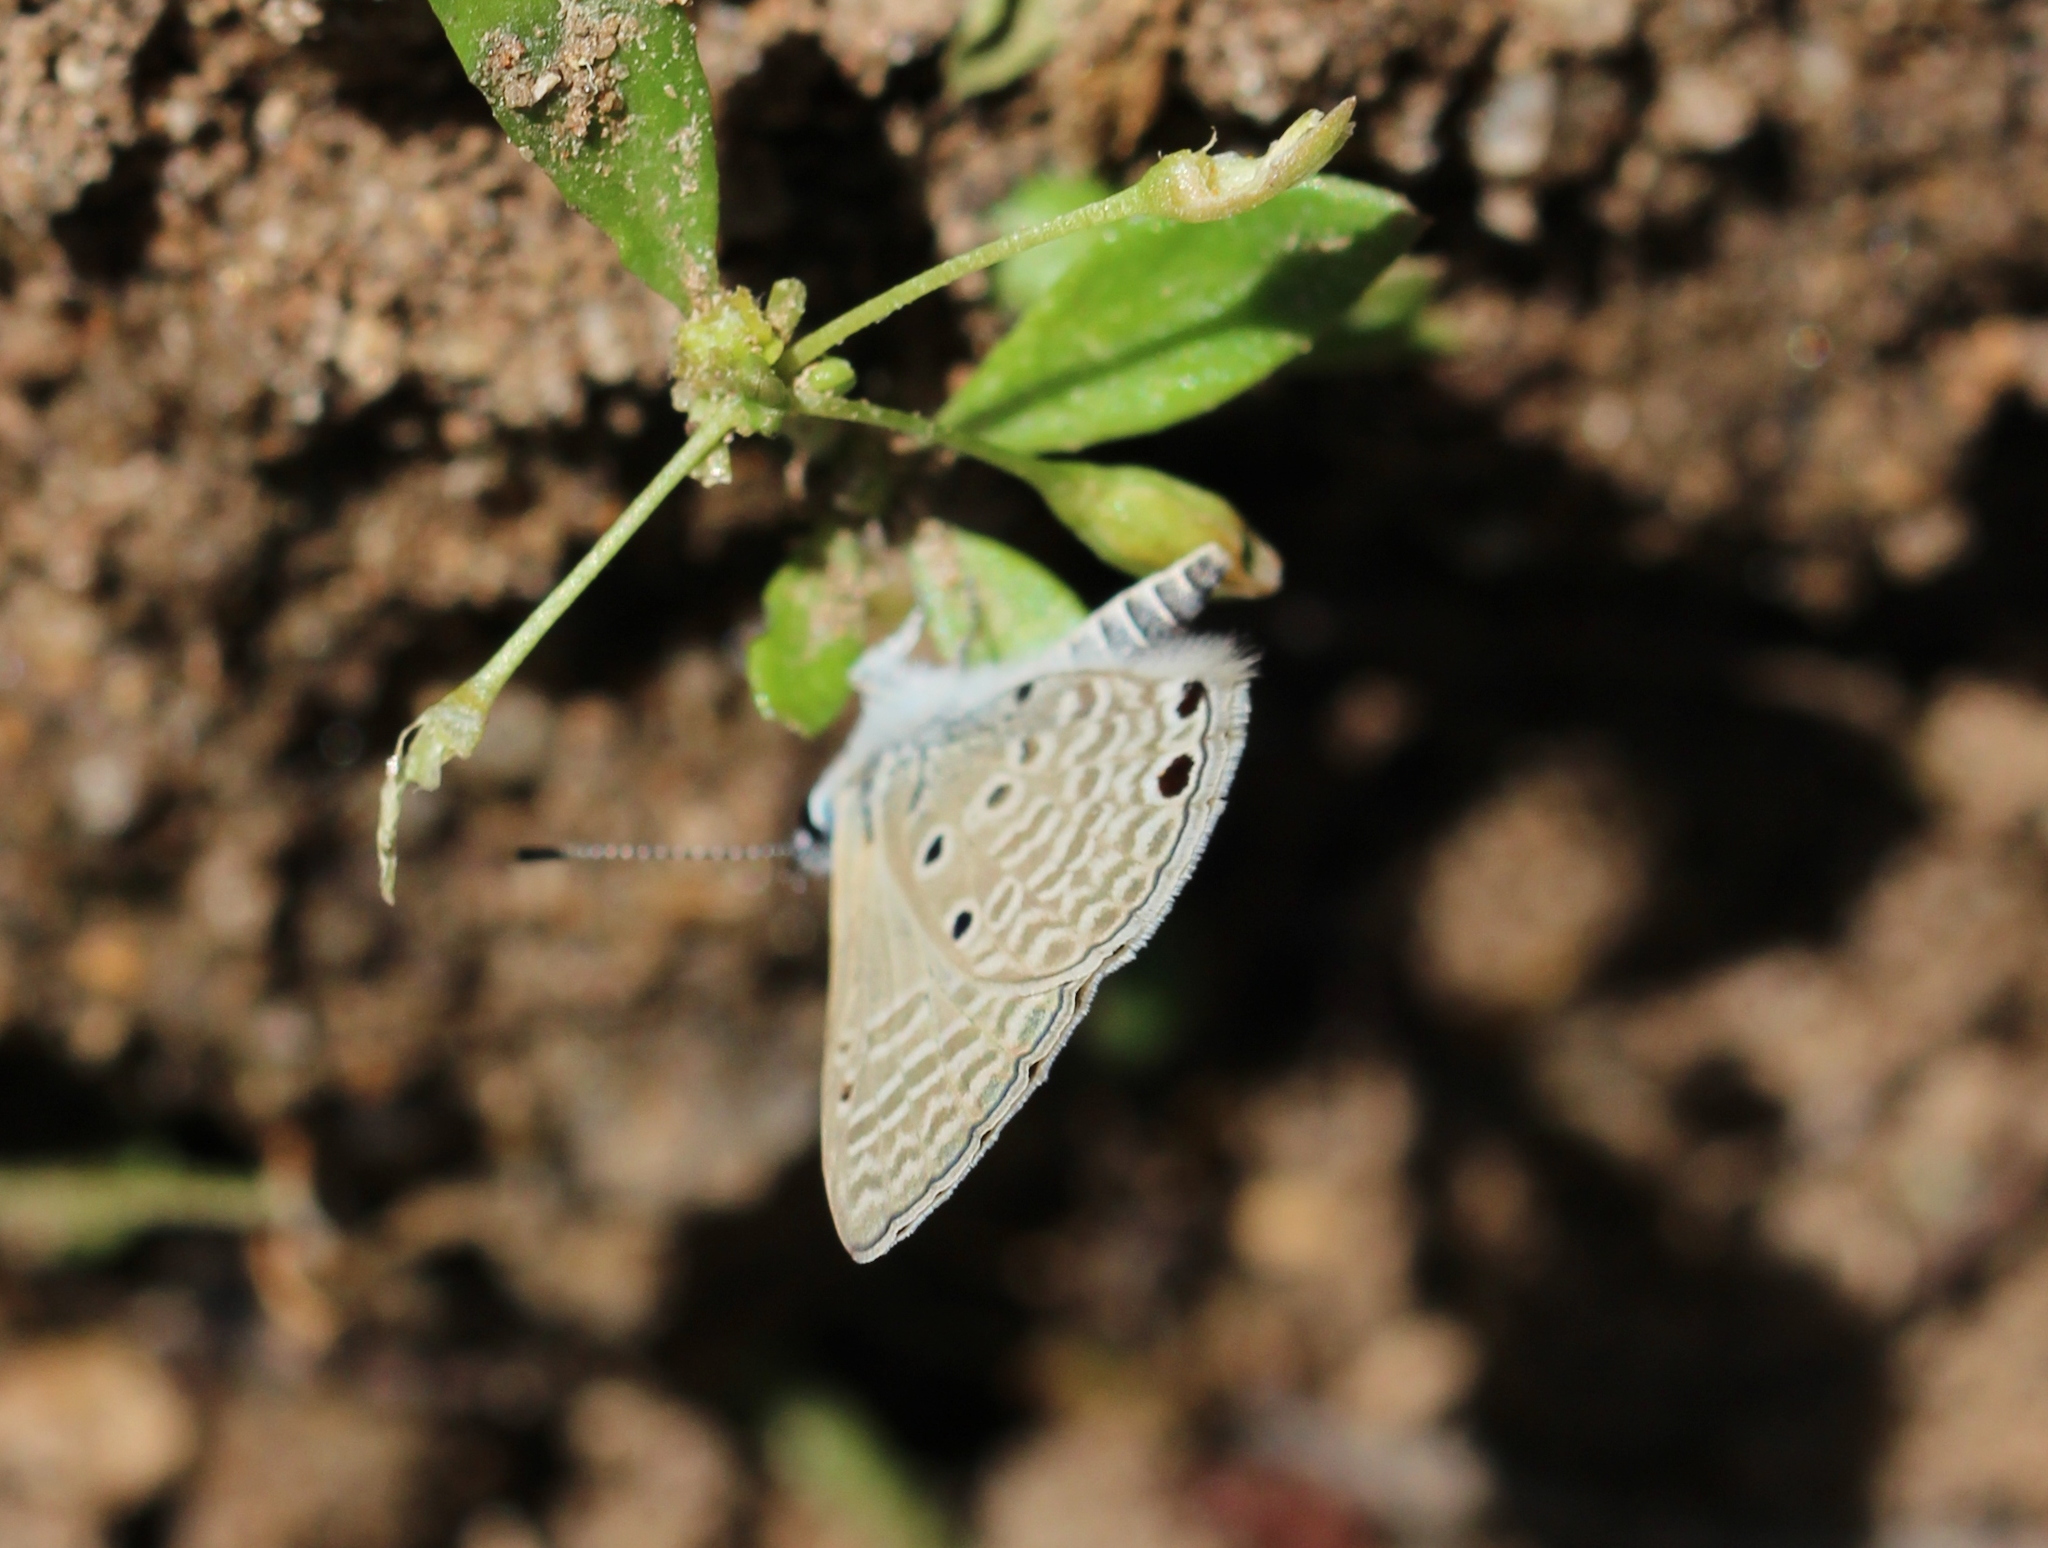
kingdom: Animalia
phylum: Arthropoda
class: Insecta
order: Lepidoptera
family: Lycaenidae
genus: Azanus
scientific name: Azanus ubaldus
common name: Desert babul blue
